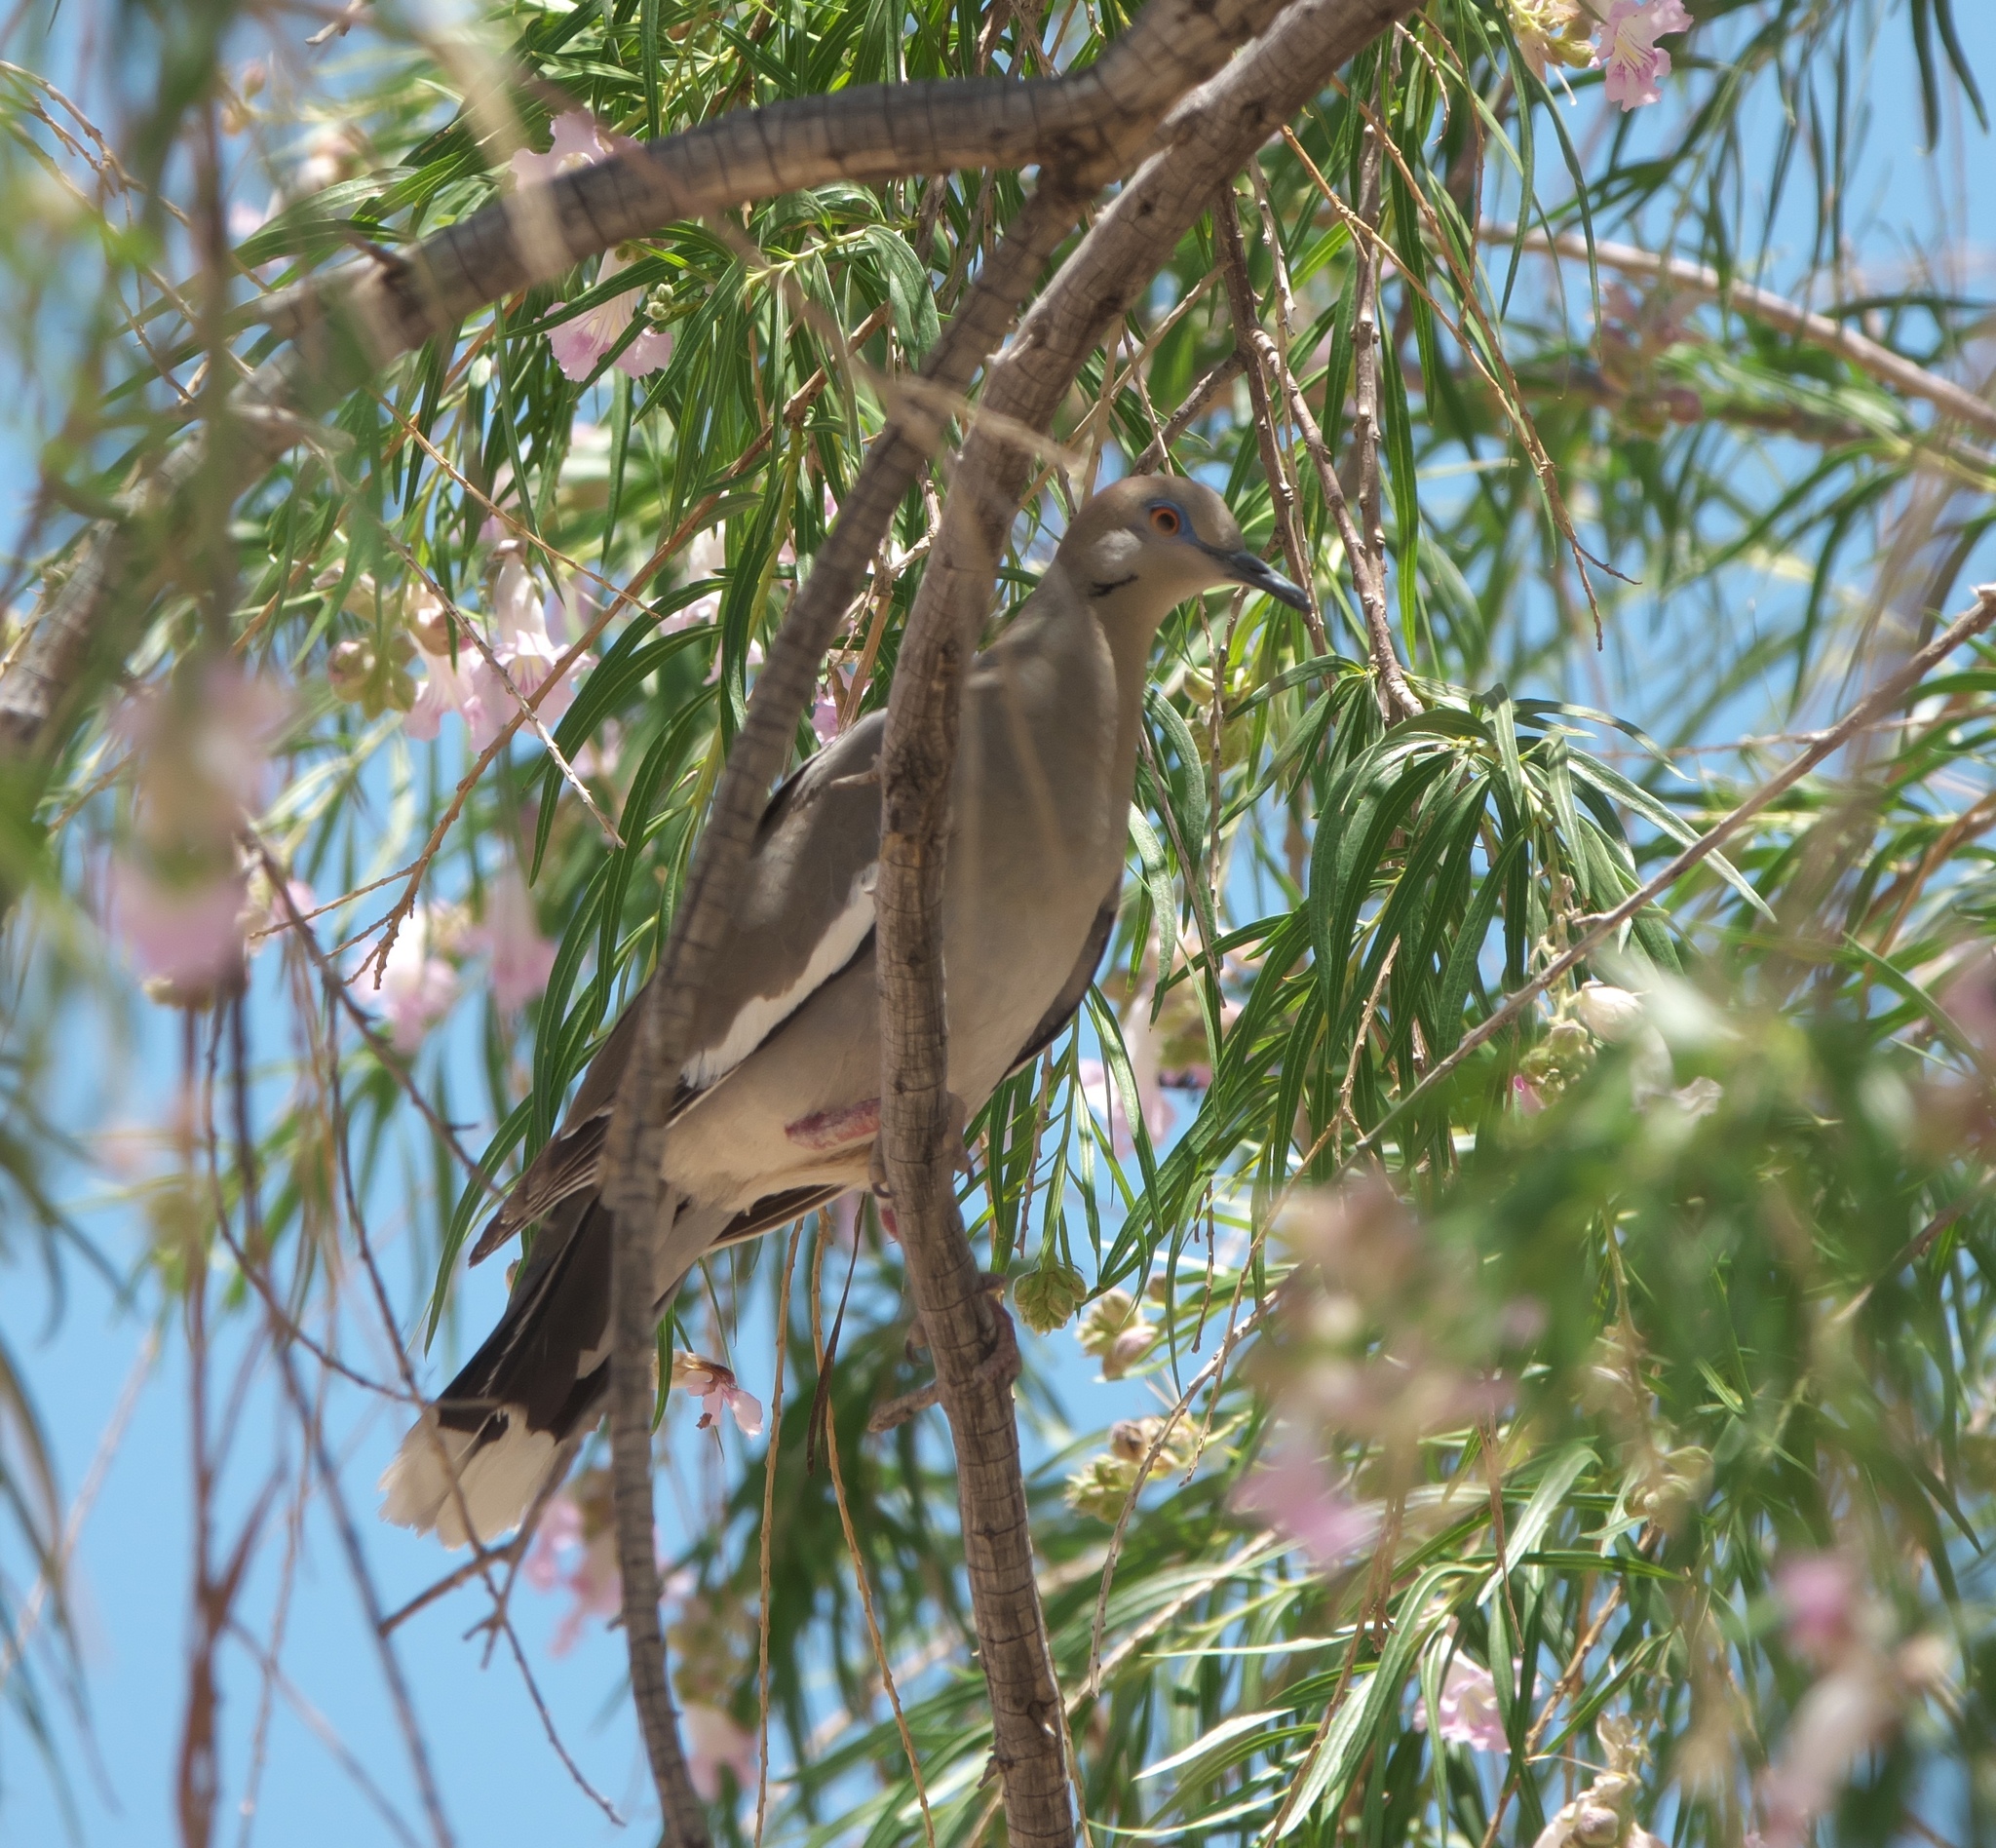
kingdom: Animalia
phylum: Chordata
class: Aves
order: Columbiformes
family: Columbidae
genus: Zenaida
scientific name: Zenaida asiatica
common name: White-winged dove
